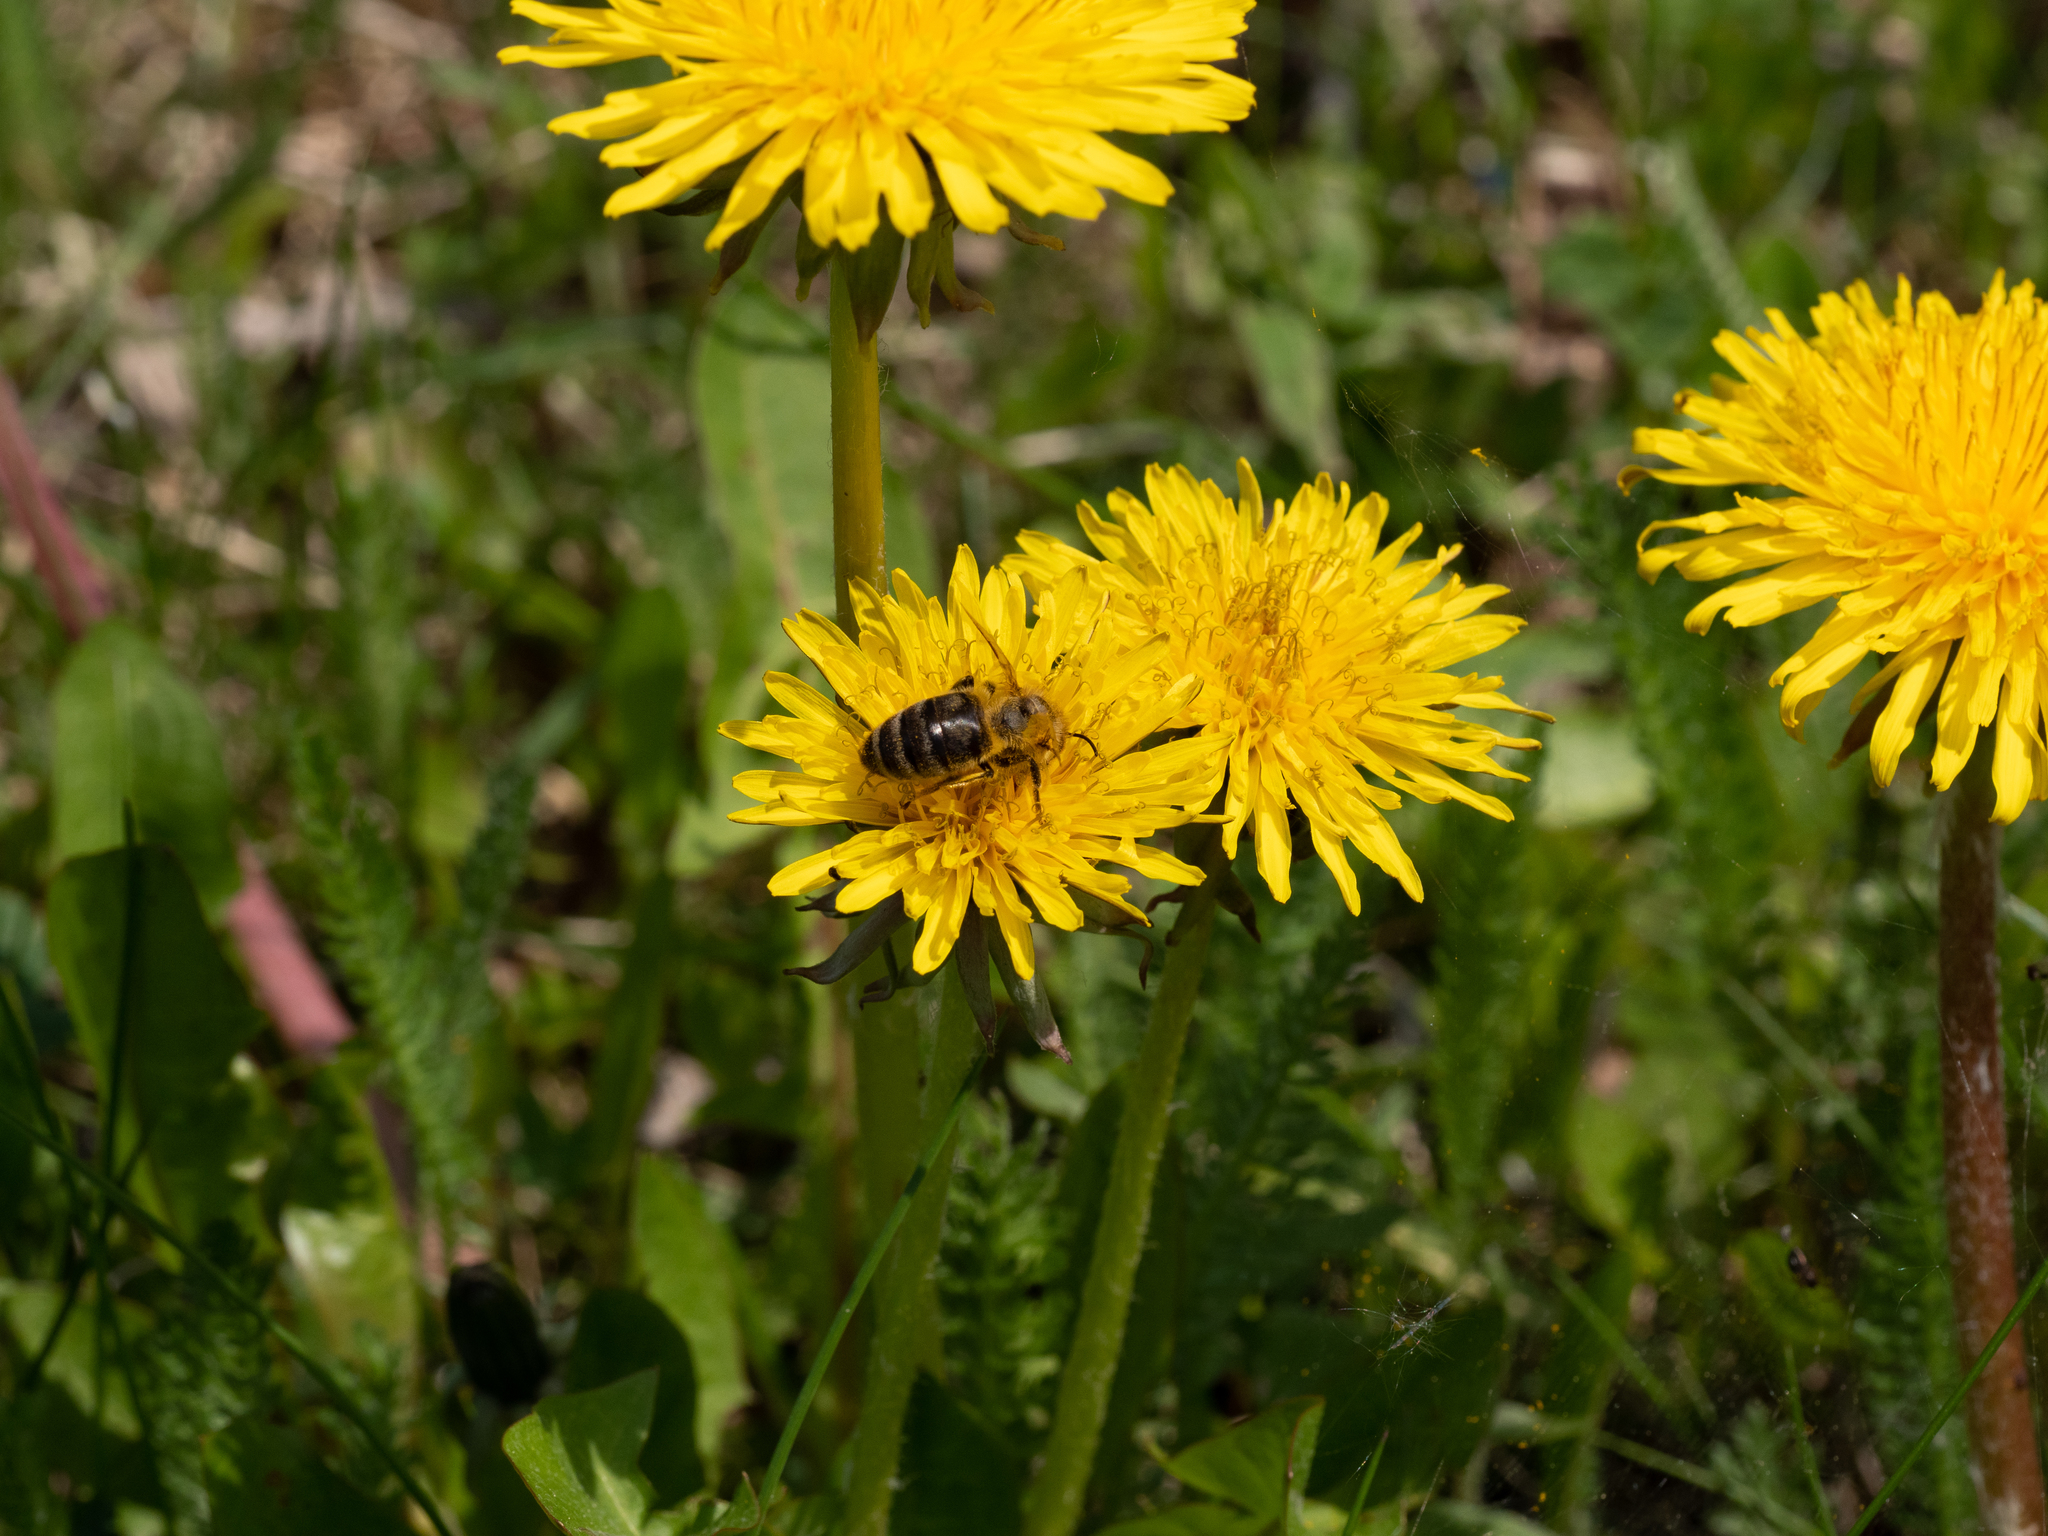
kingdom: Animalia
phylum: Arthropoda
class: Insecta
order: Hymenoptera
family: Apidae
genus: Apis
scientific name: Apis mellifera
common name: Honey bee
